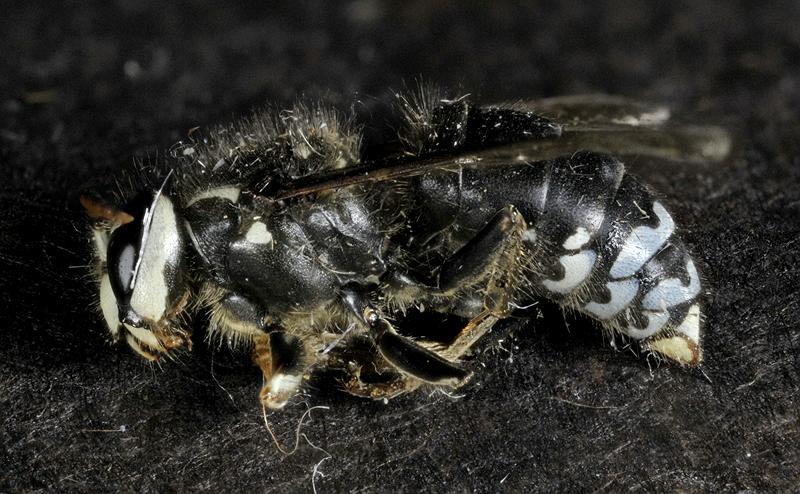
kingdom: Animalia
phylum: Arthropoda
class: Insecta
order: Hymenoptera
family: Vespidae
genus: Dolichovespula
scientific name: Dolichovespula maculata
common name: Bald-faced hornet
